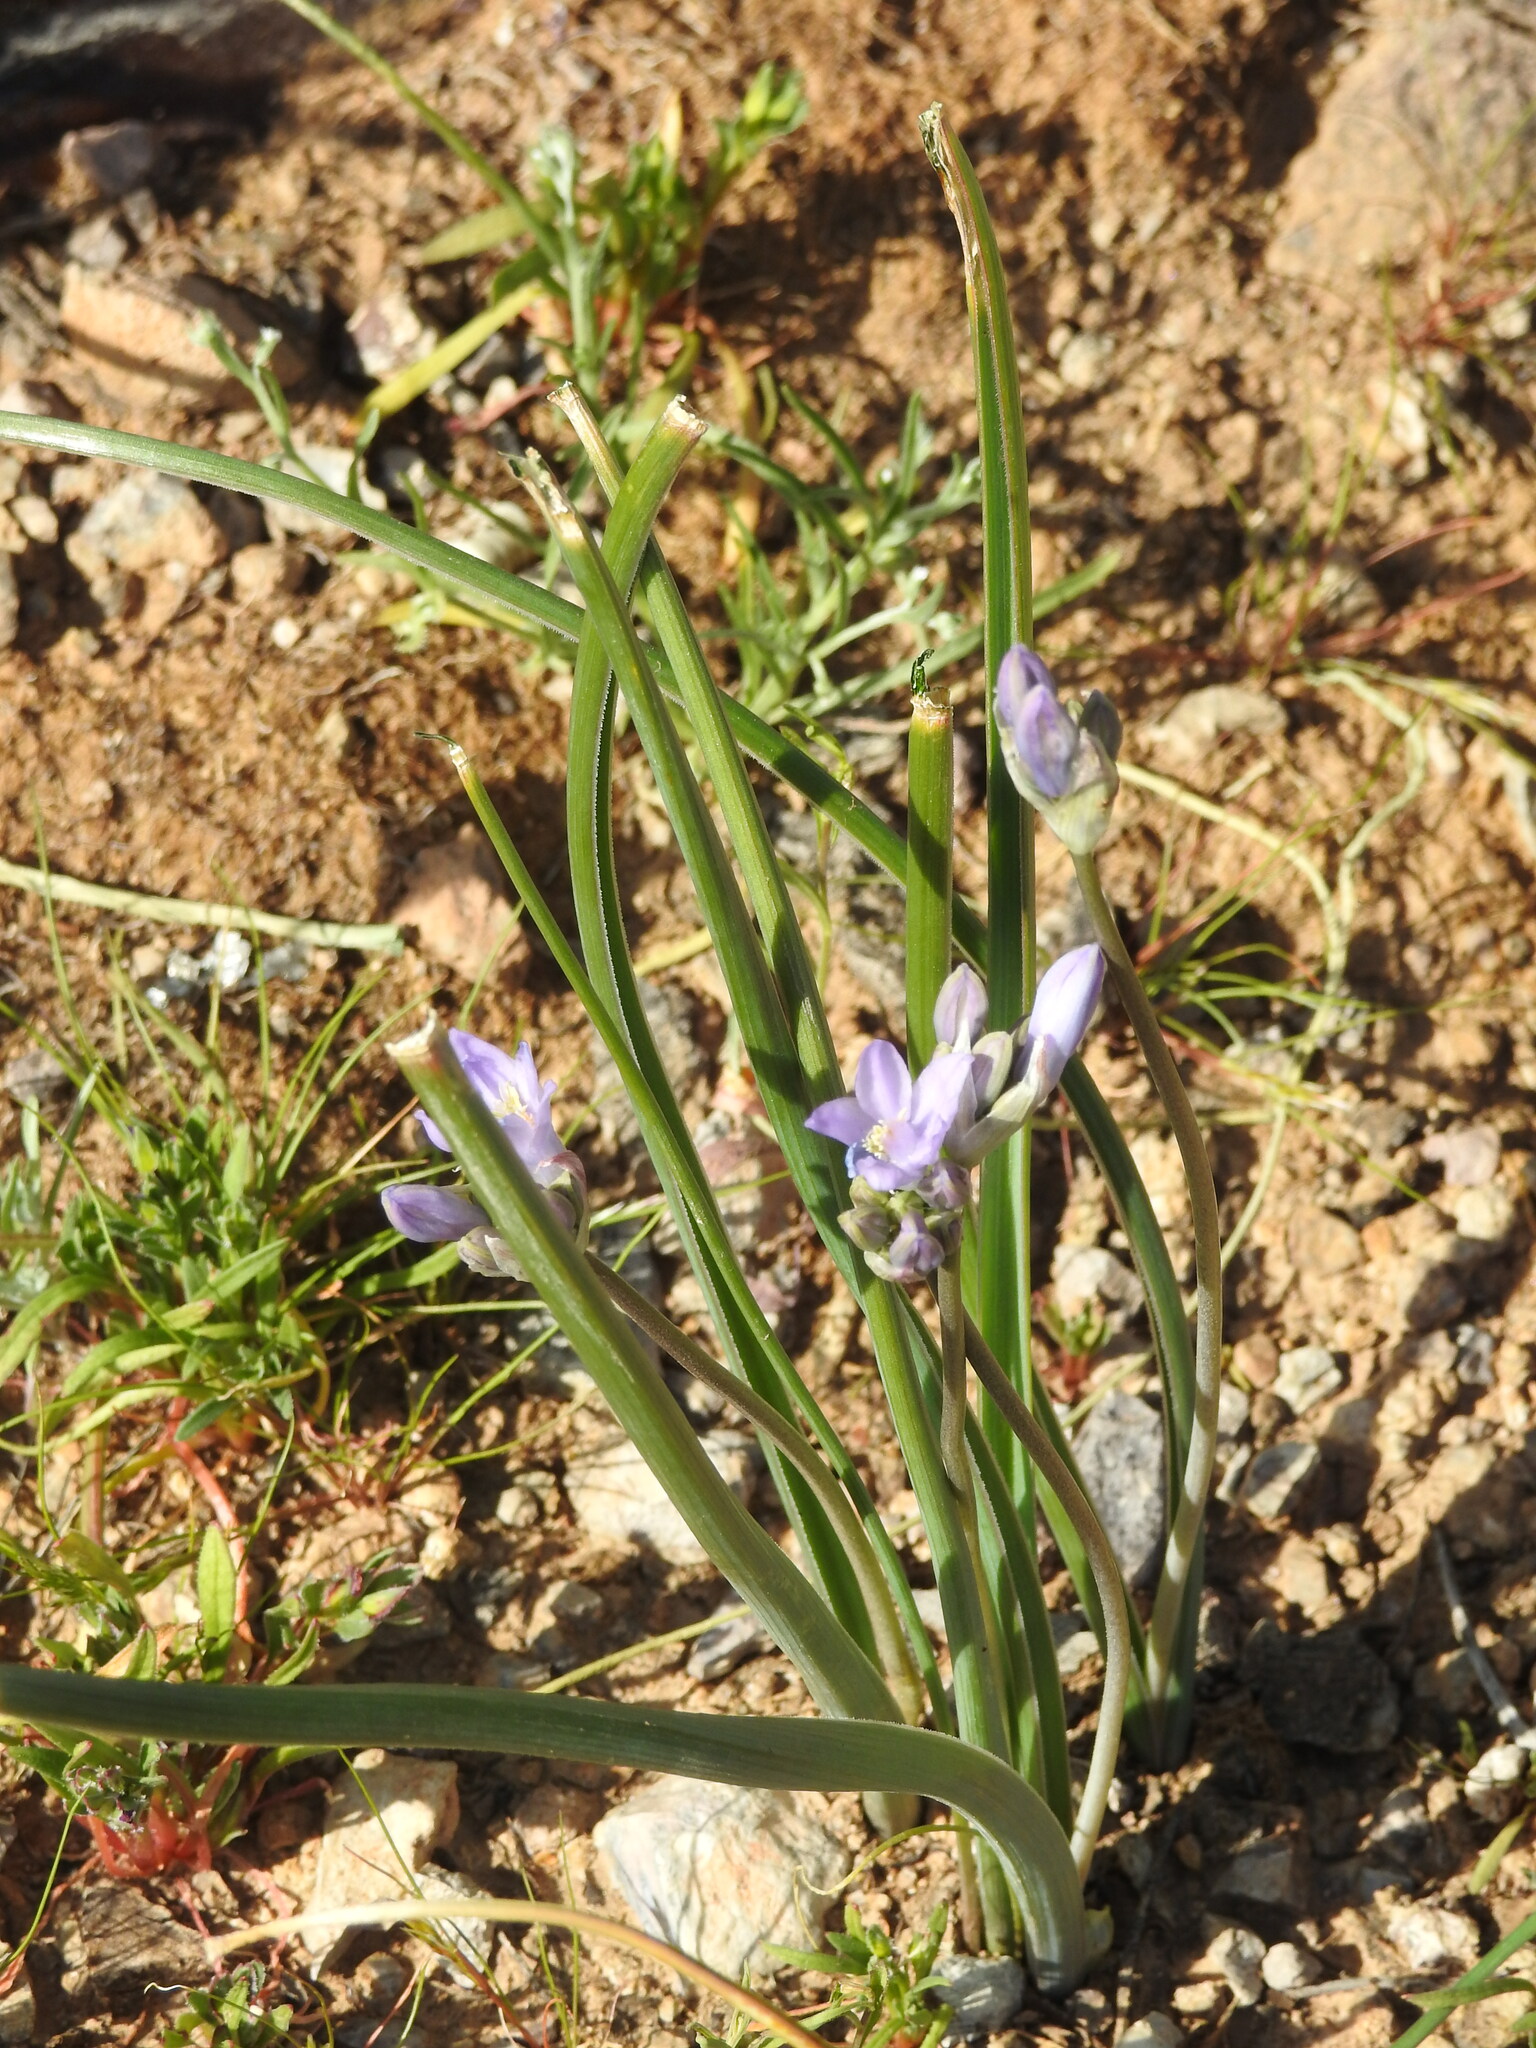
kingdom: Plantae
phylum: Tracheophyta
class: Liliopsida
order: Asparagales
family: Asparagaceae
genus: Dipterostemon
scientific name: Dipterostemon capitatus
